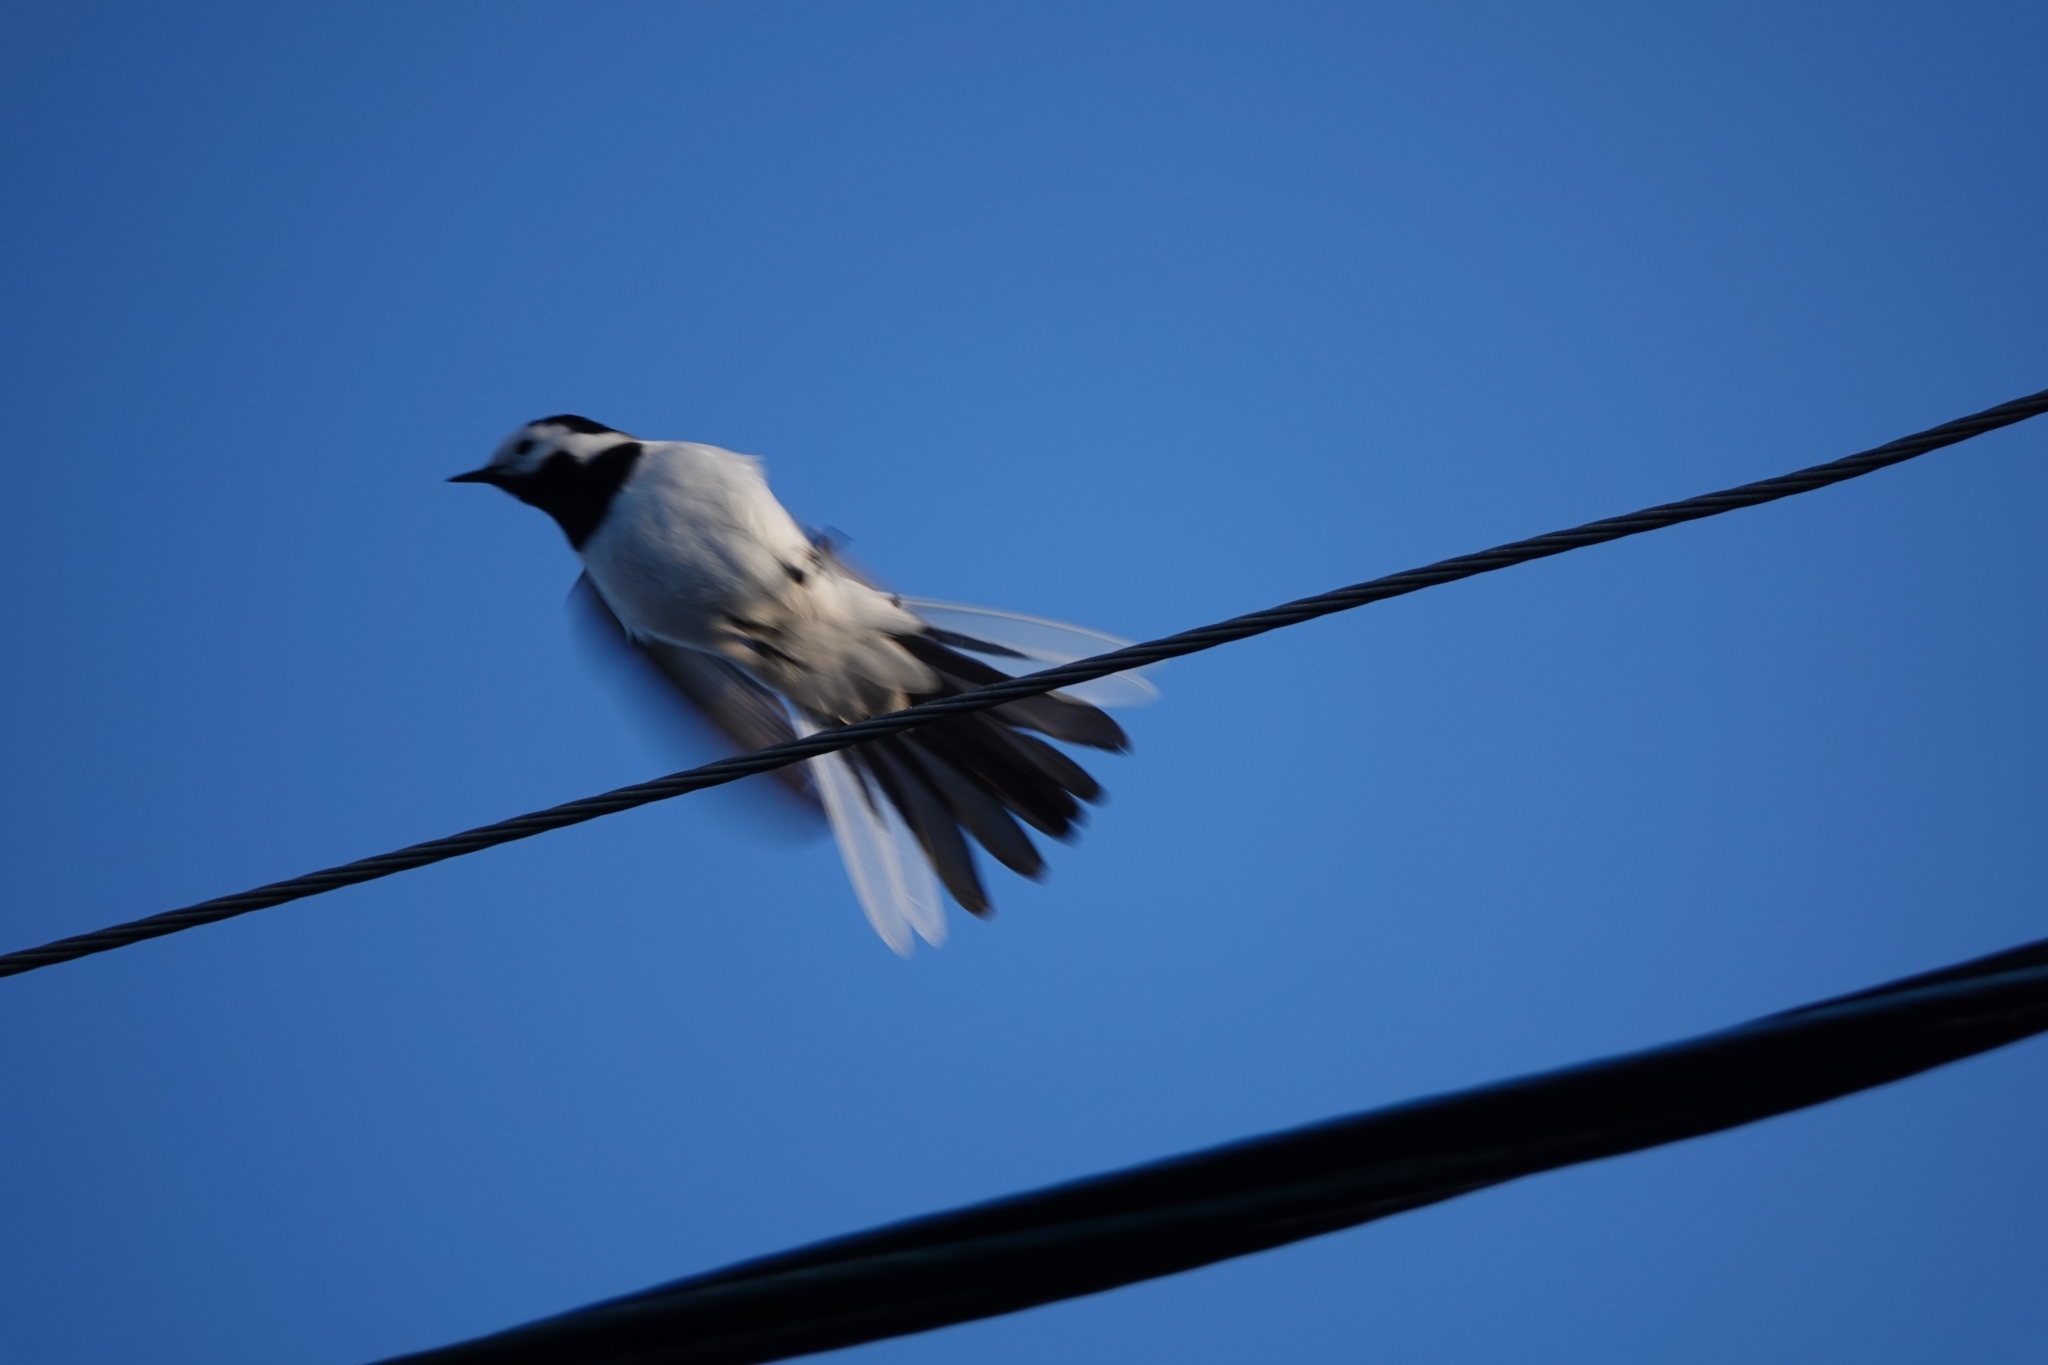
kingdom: Animalia
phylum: Chordata
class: Aves
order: Passeriformes
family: Motacillidae
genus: Motacilla
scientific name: Motacilla alba
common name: White wagtail
